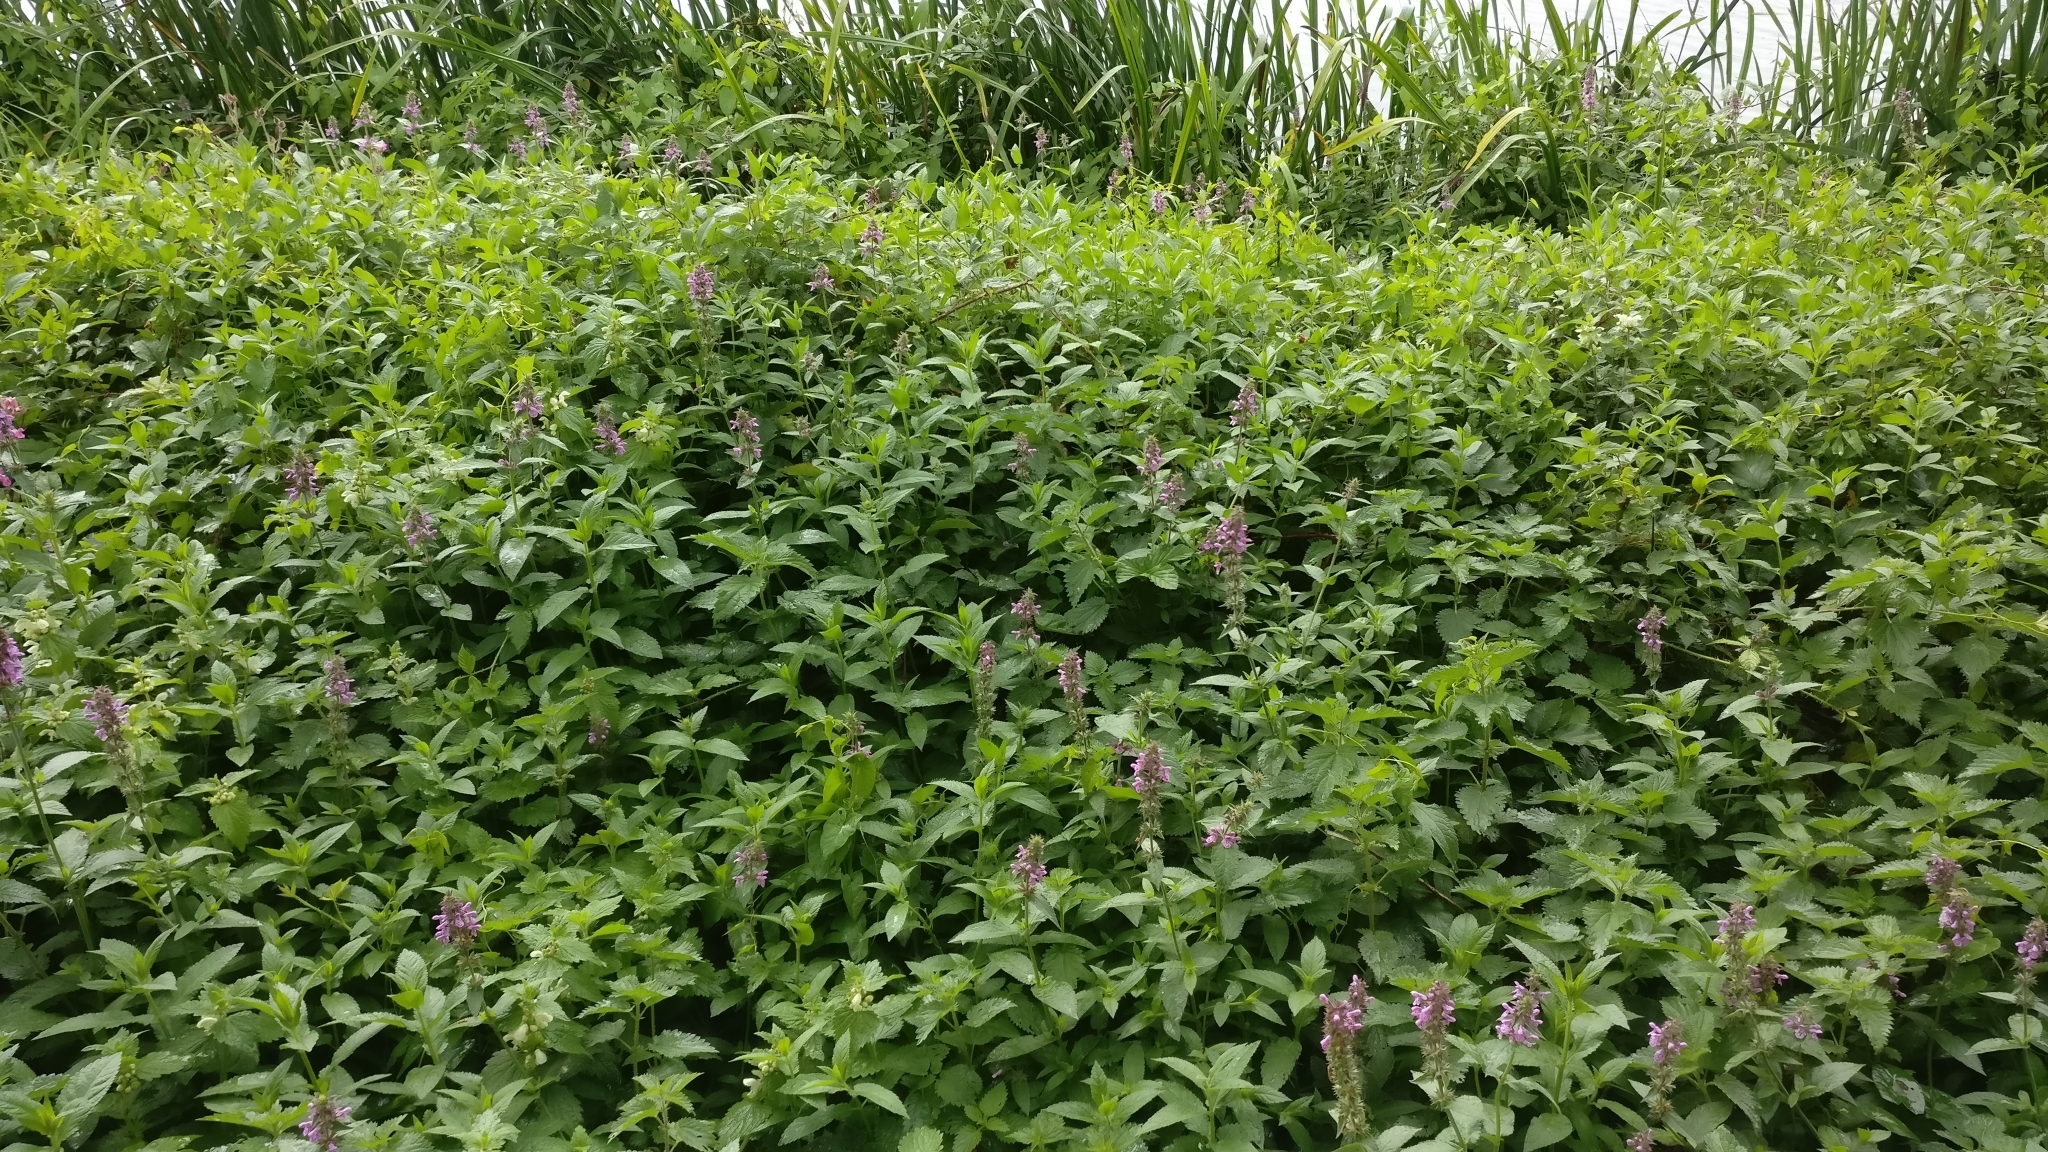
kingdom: Plantae
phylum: Tracheophyta
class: Magnoliopsida
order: Lamiales
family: Lamiaceae
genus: Stachys
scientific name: Stachys palustris
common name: Marsh woundwort
